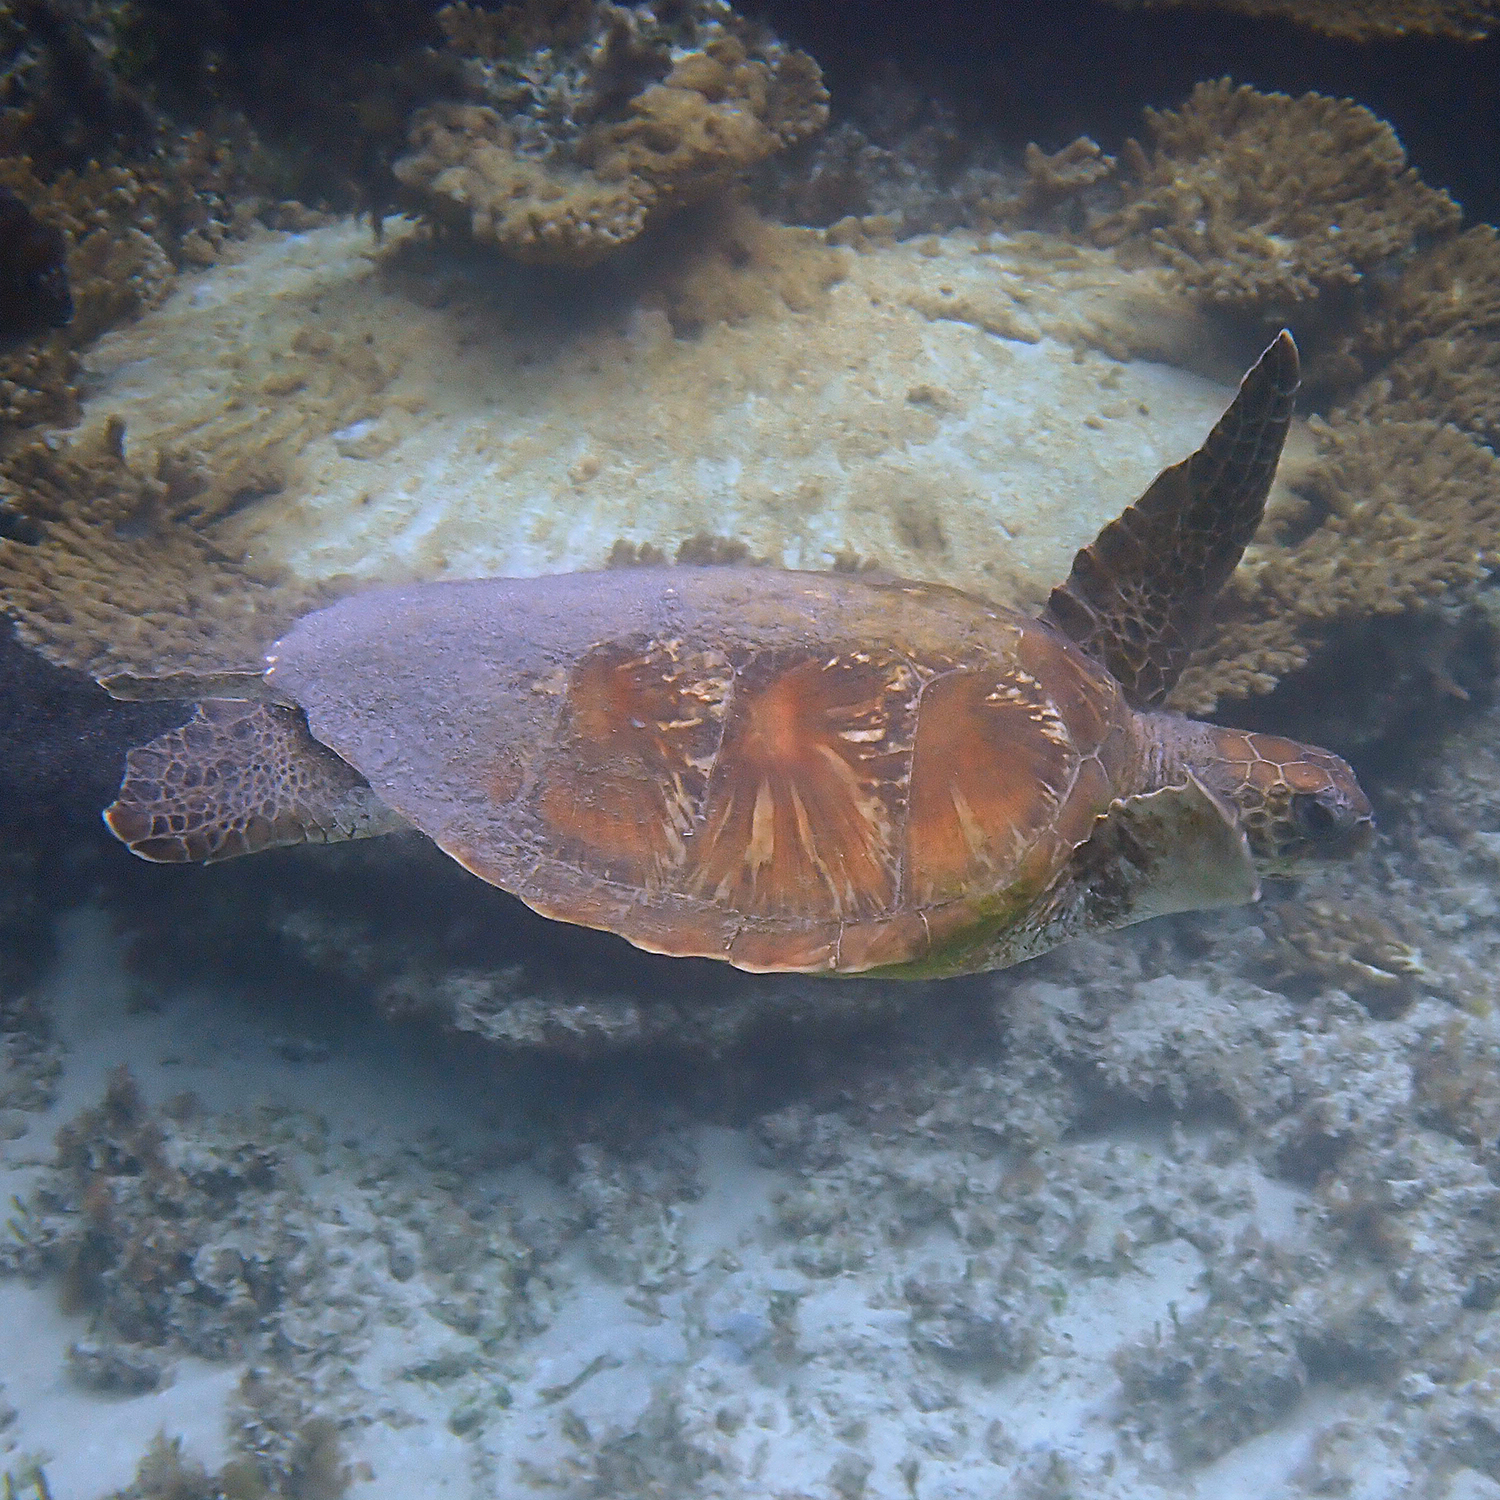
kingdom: Animalia
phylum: Chordata
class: Testudines
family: Cheloniidae
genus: Chelonia
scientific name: Chelonia mydas
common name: Green turtle
